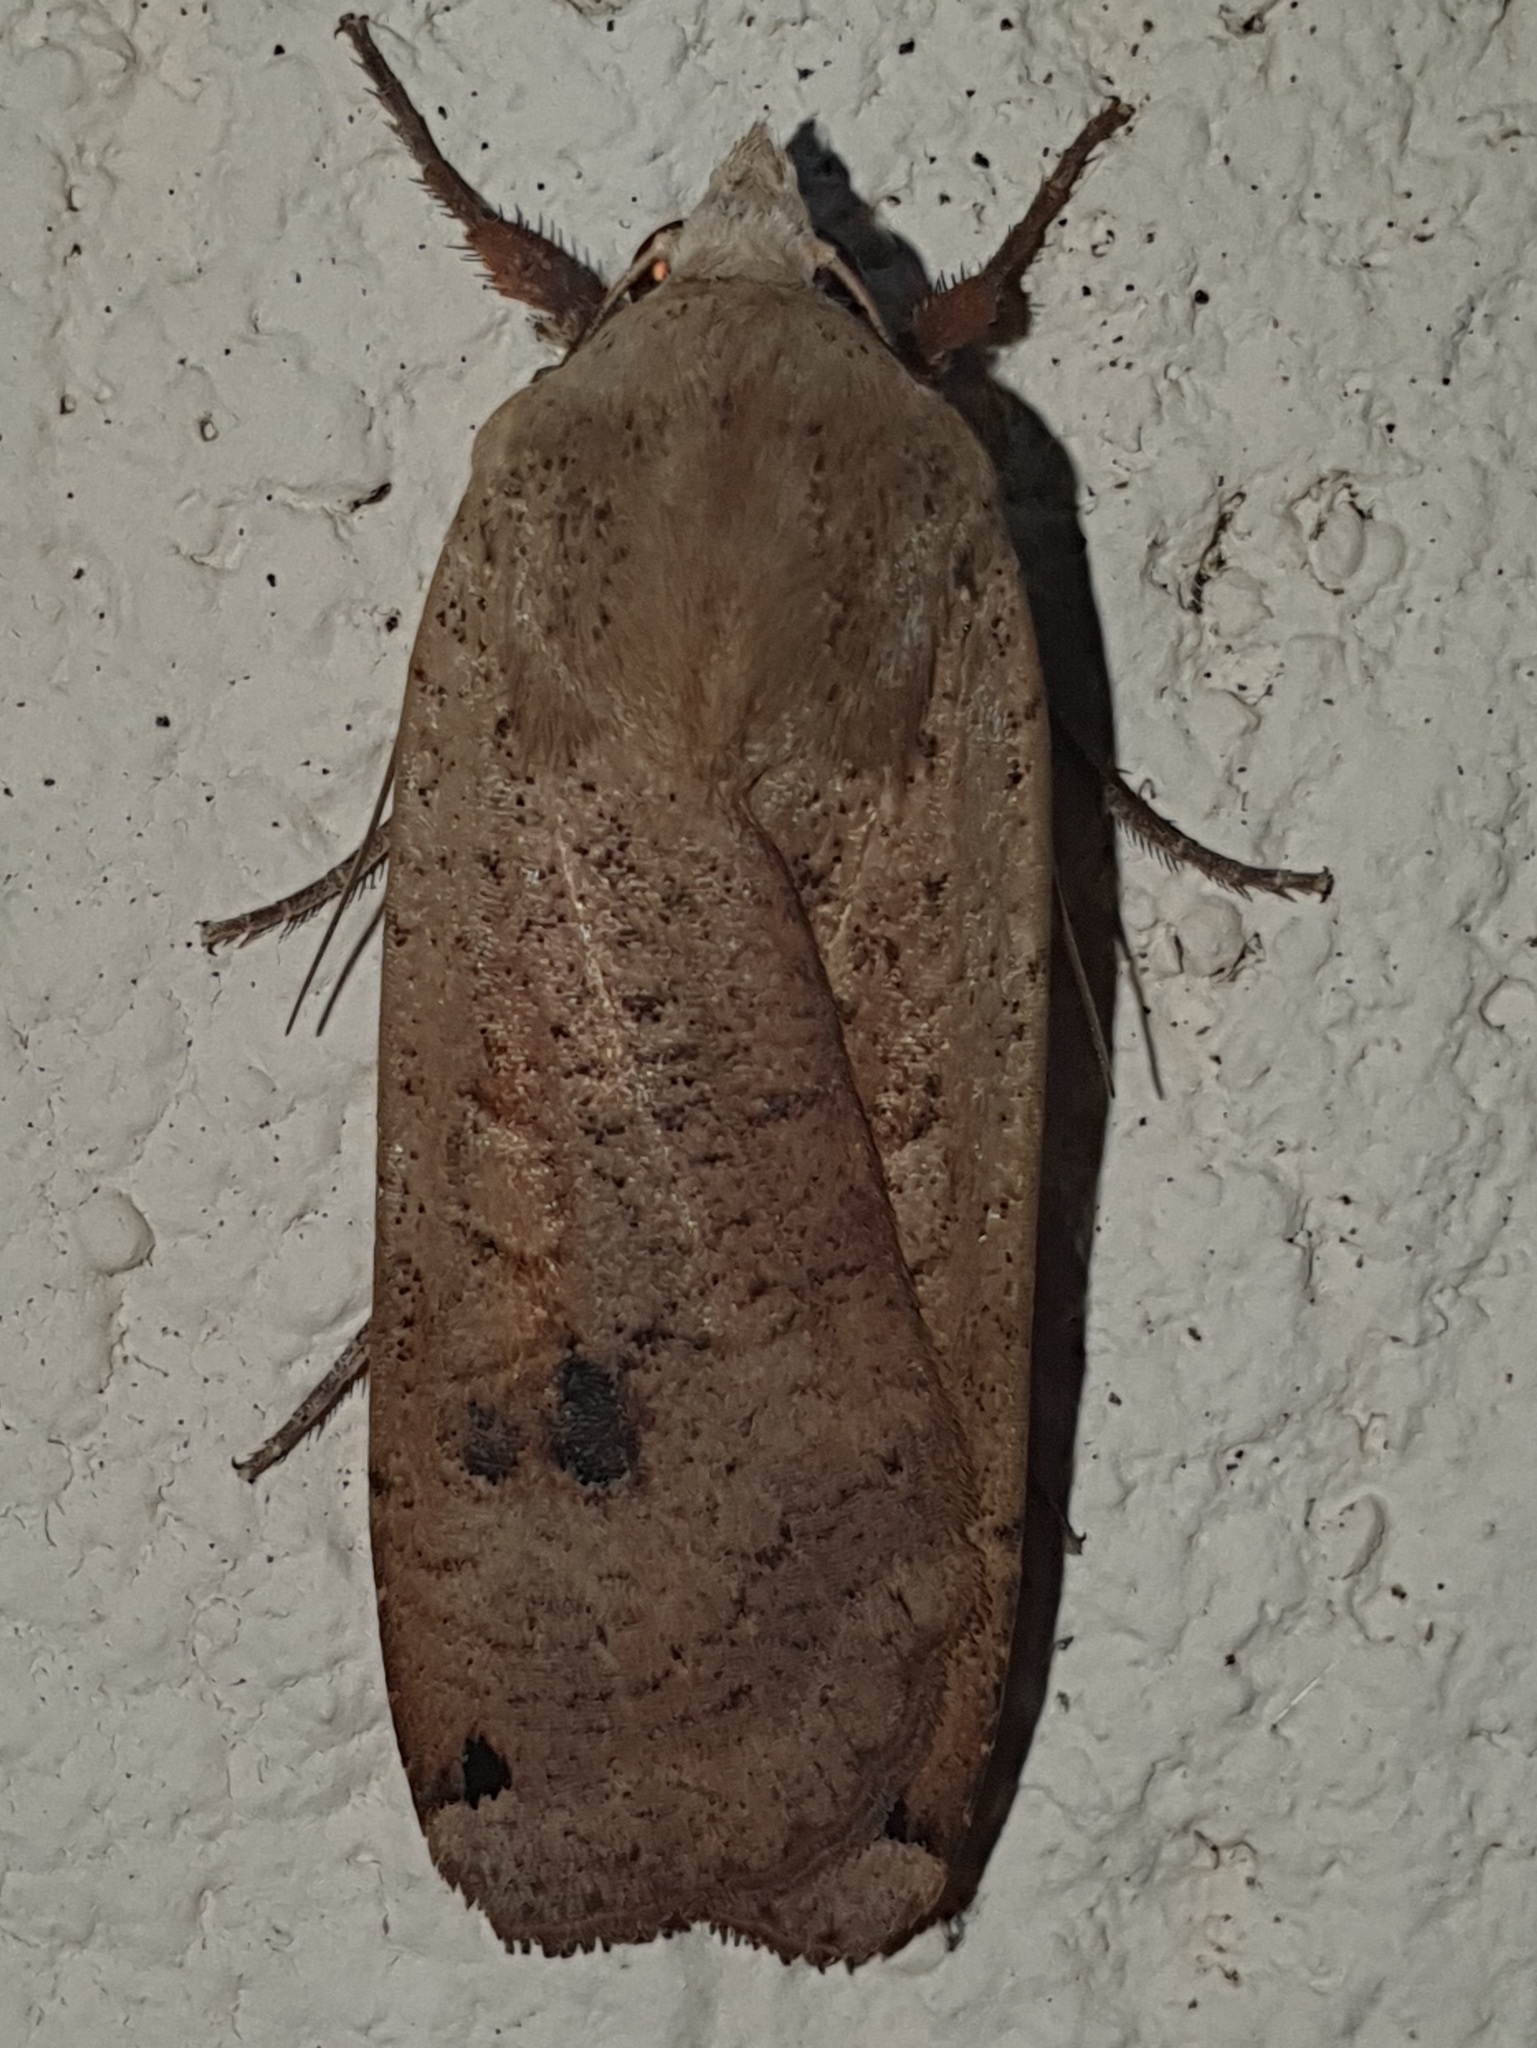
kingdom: Animalia
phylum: Arthropoda
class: Insecta
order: Lepidoptera
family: Noctuidae
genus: Noctua
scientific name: Noctua pronuba
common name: Large yellow underwing
